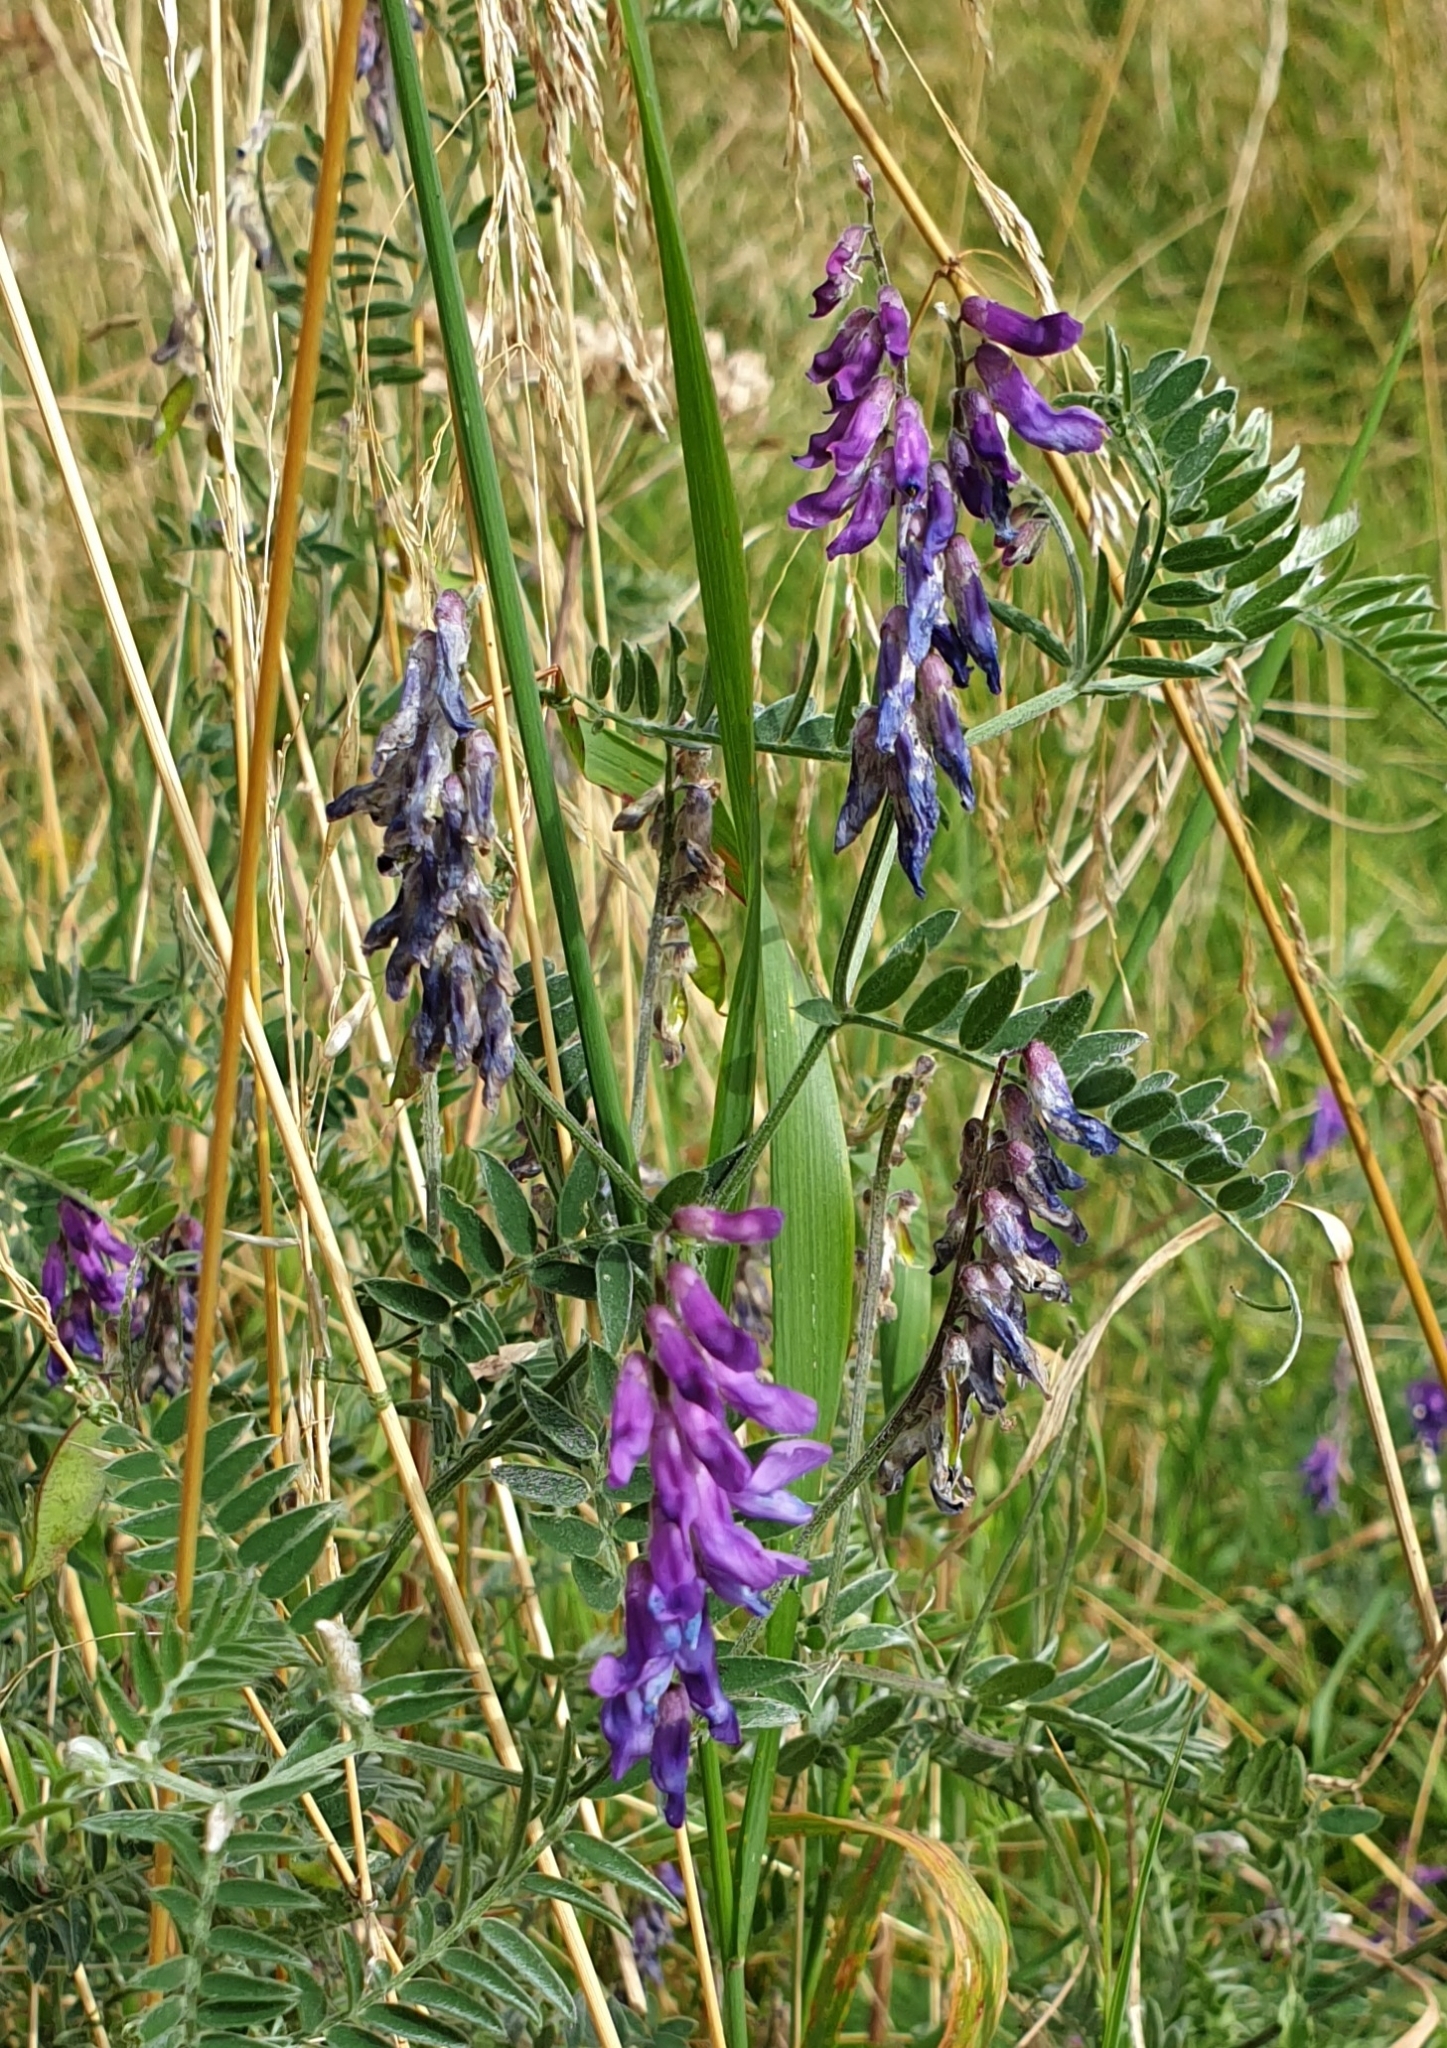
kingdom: Plantae
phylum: Tracheophyta
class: Magnoliopsida
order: Fabales
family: Fabaceae
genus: Vicia
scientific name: Vicia cracca
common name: Bird vetch
